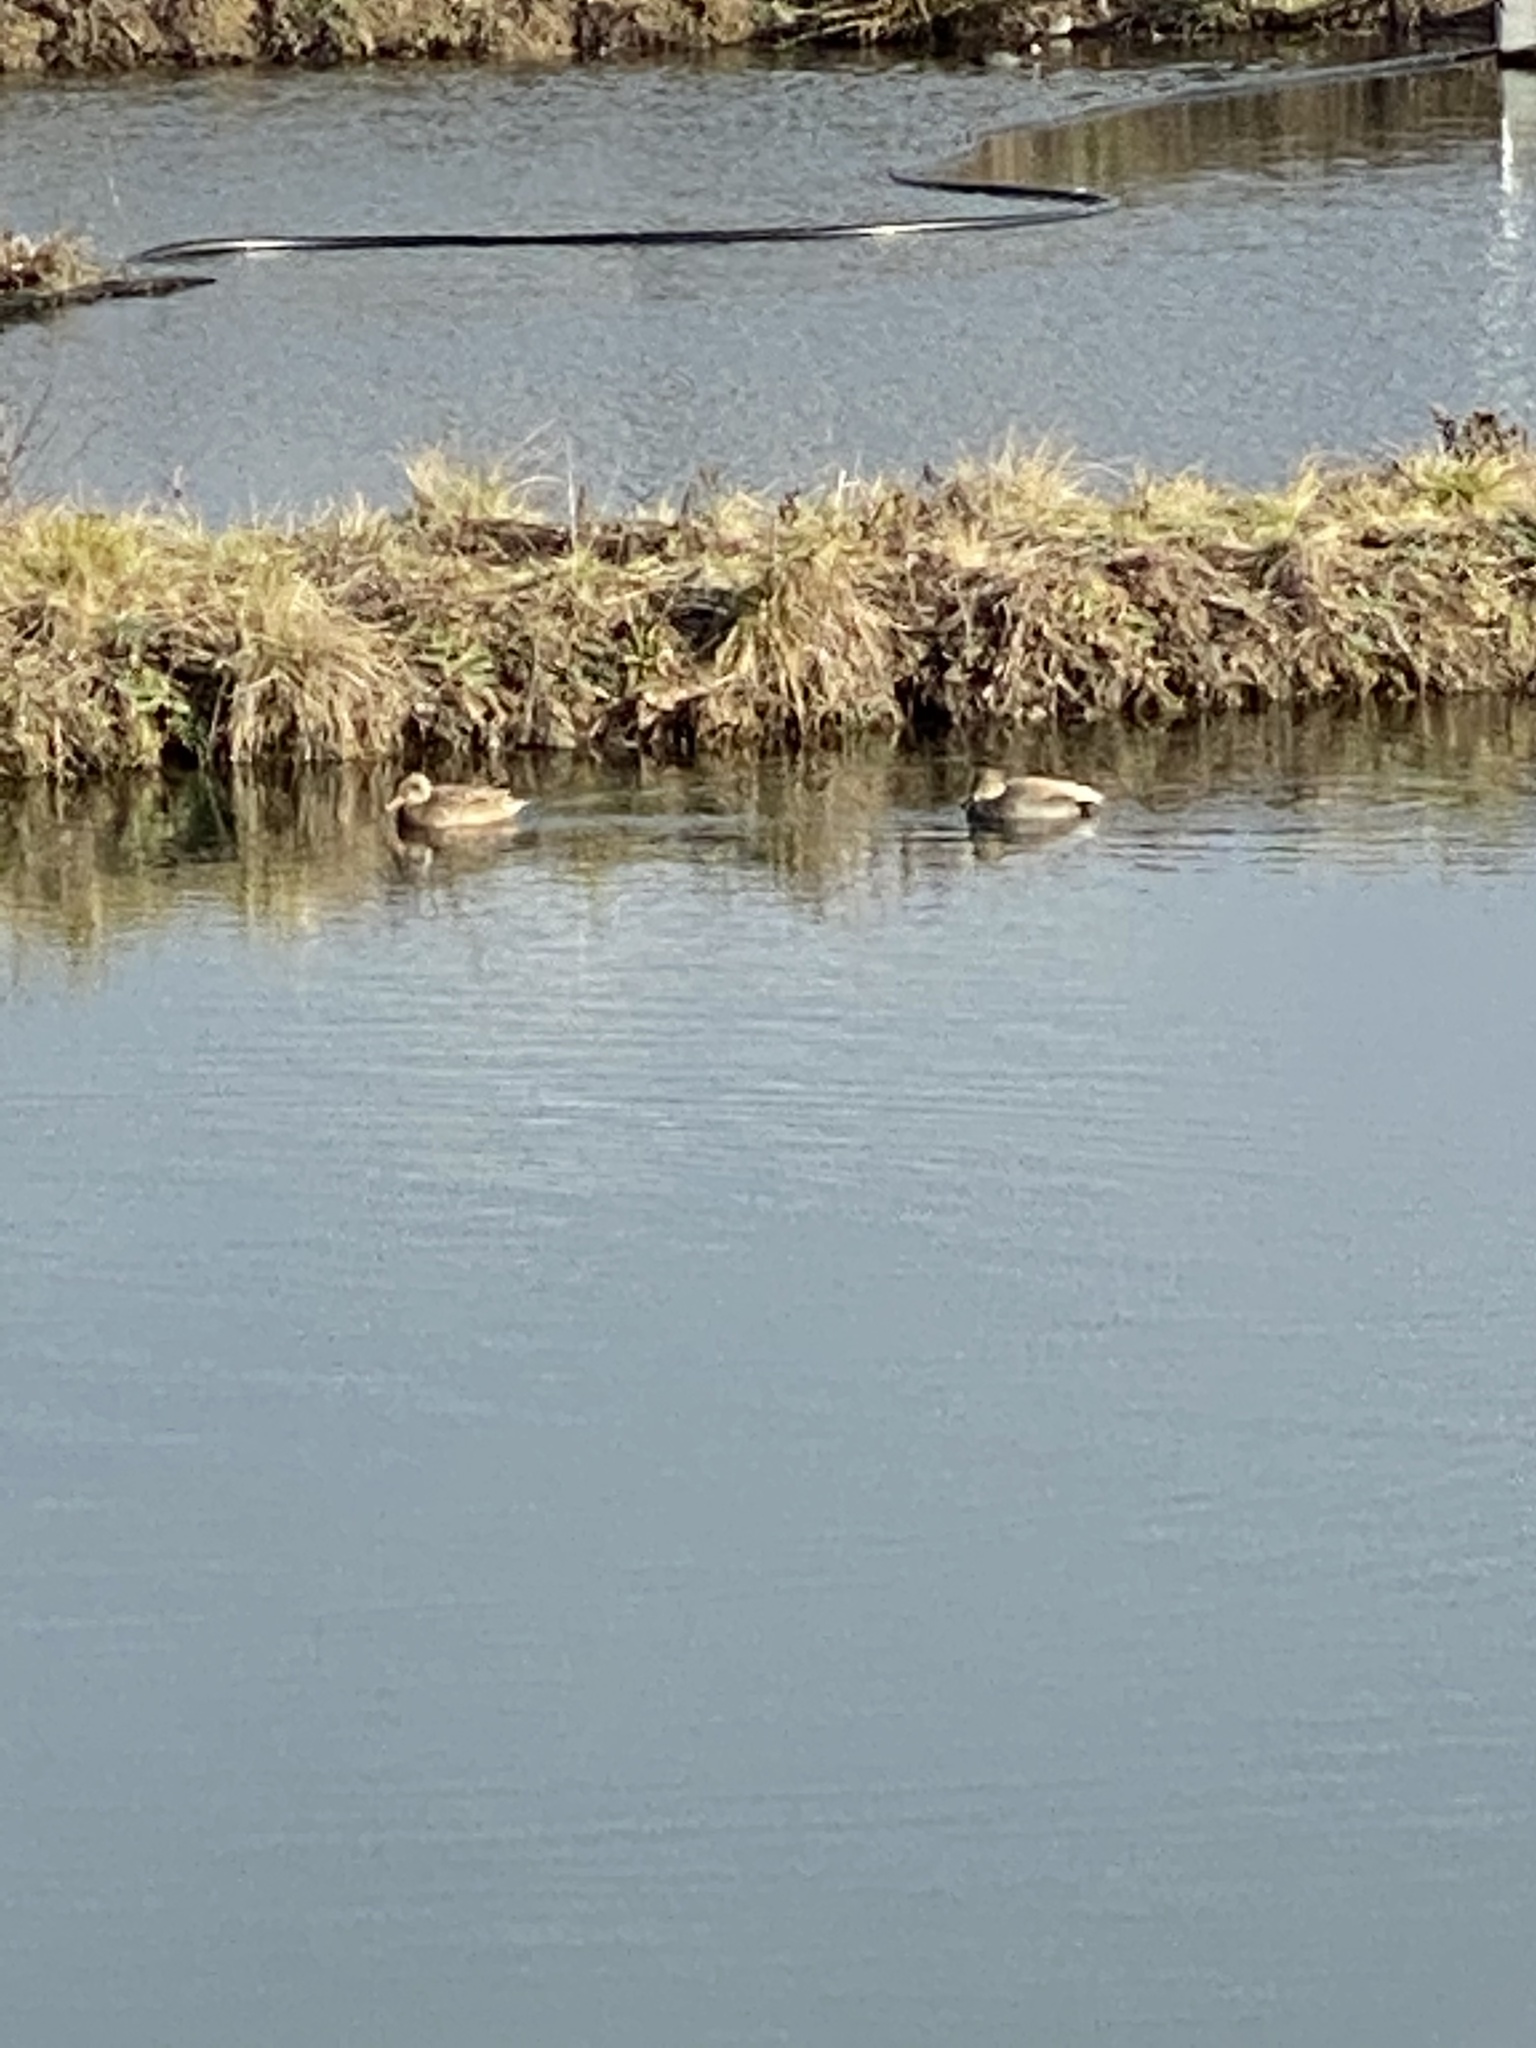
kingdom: Animalia
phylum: Chordata
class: Aves
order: Anseriformes
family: Anatidae
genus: Mareca
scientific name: Mareca strepera
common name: Gadwall
